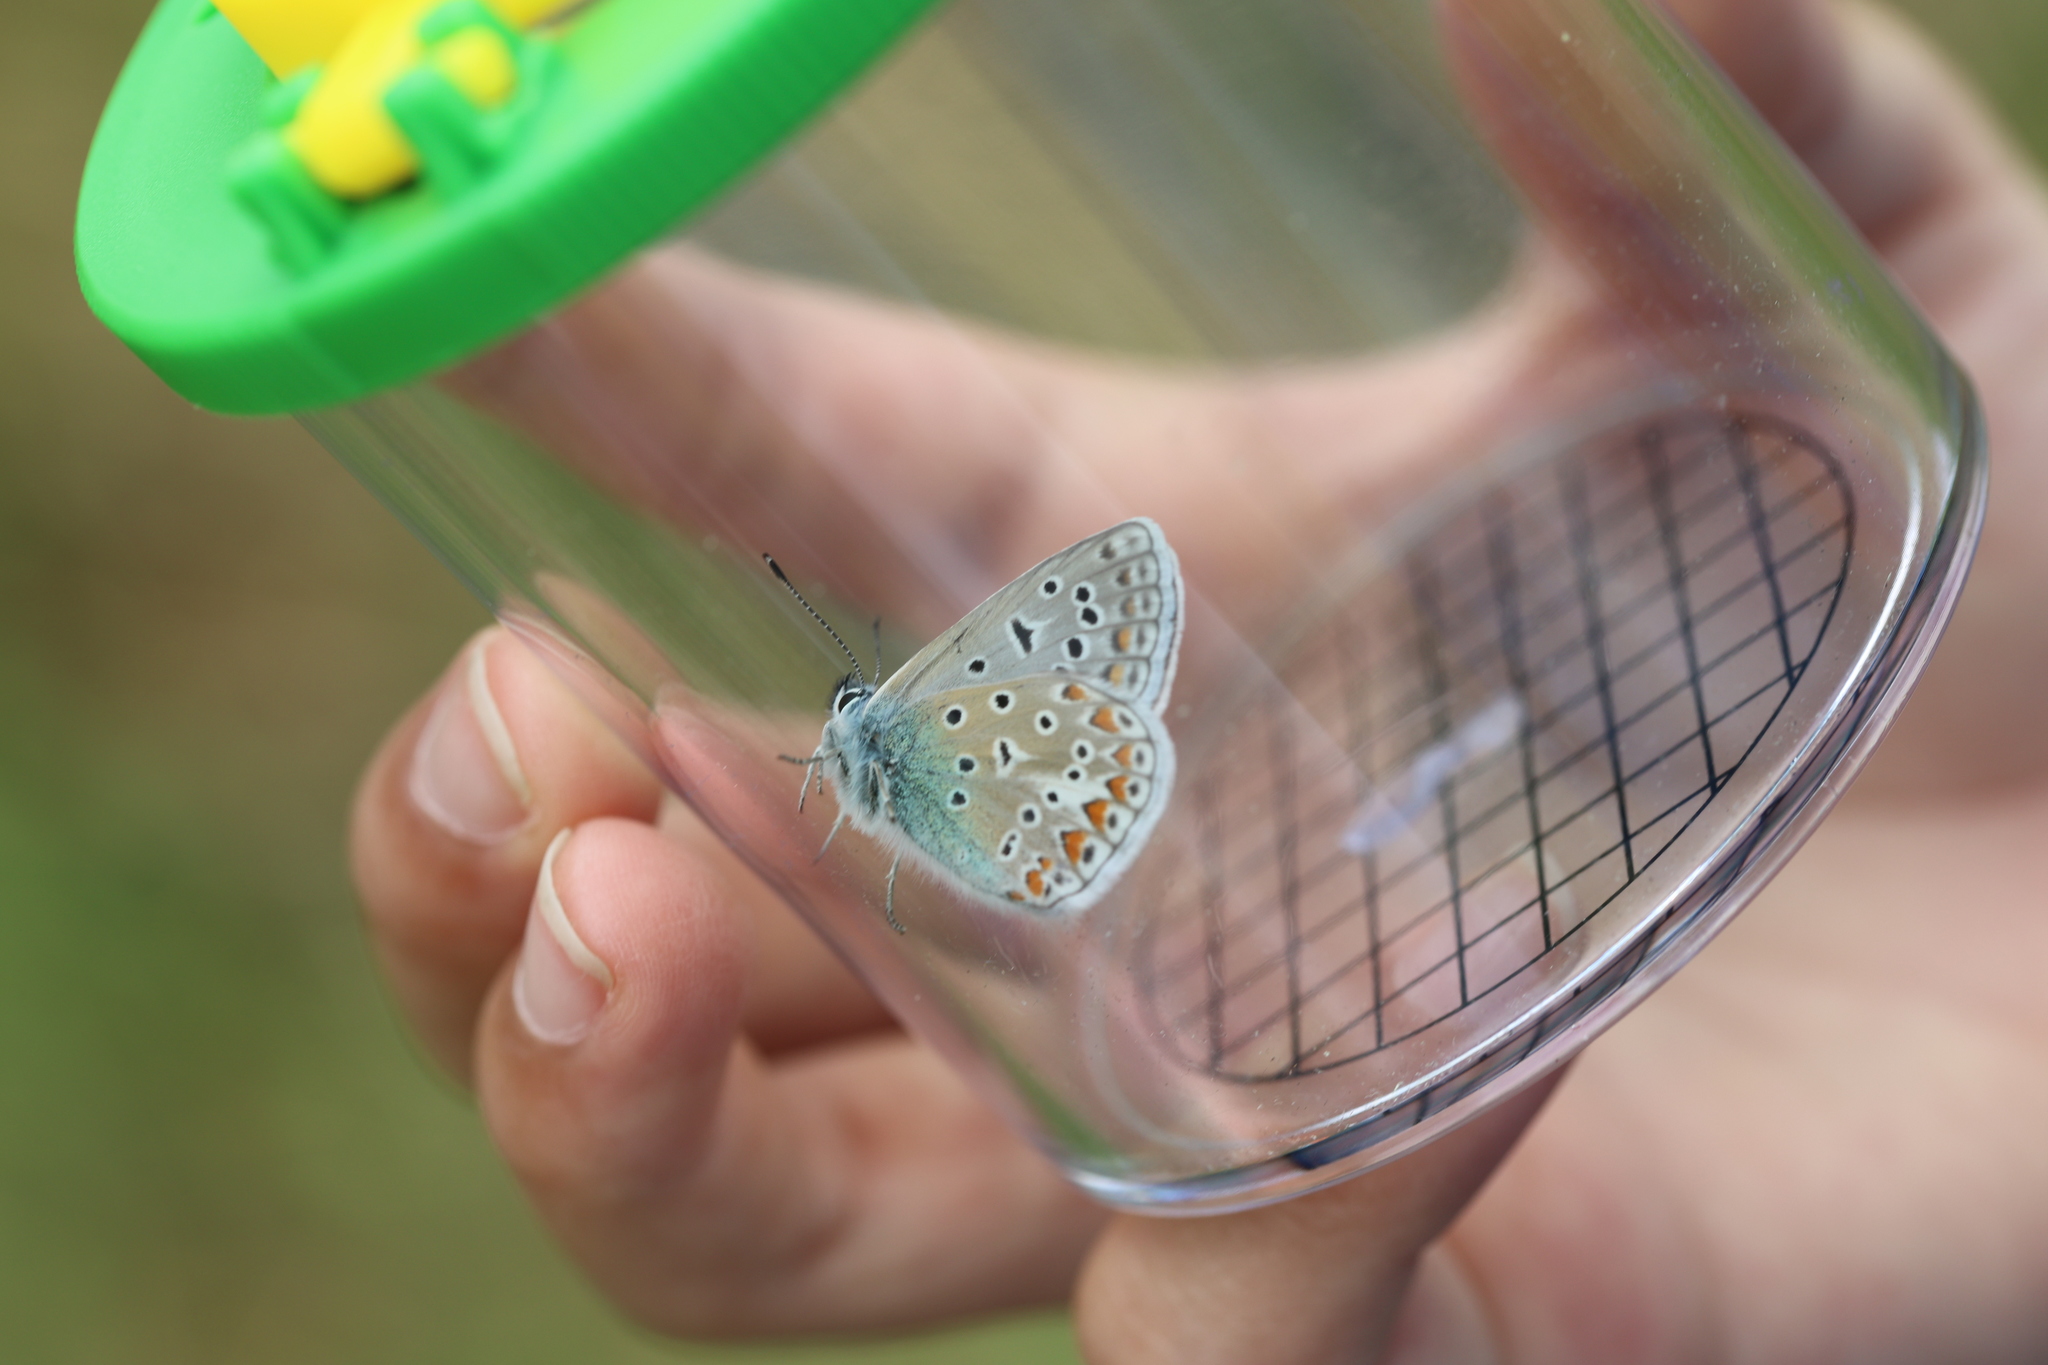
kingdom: Animalia
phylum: Arthropoda
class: Insecta
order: Lepidoptera
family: Lycaenidae
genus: Polyommatus
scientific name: Polyommatus icarus
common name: Common blue
